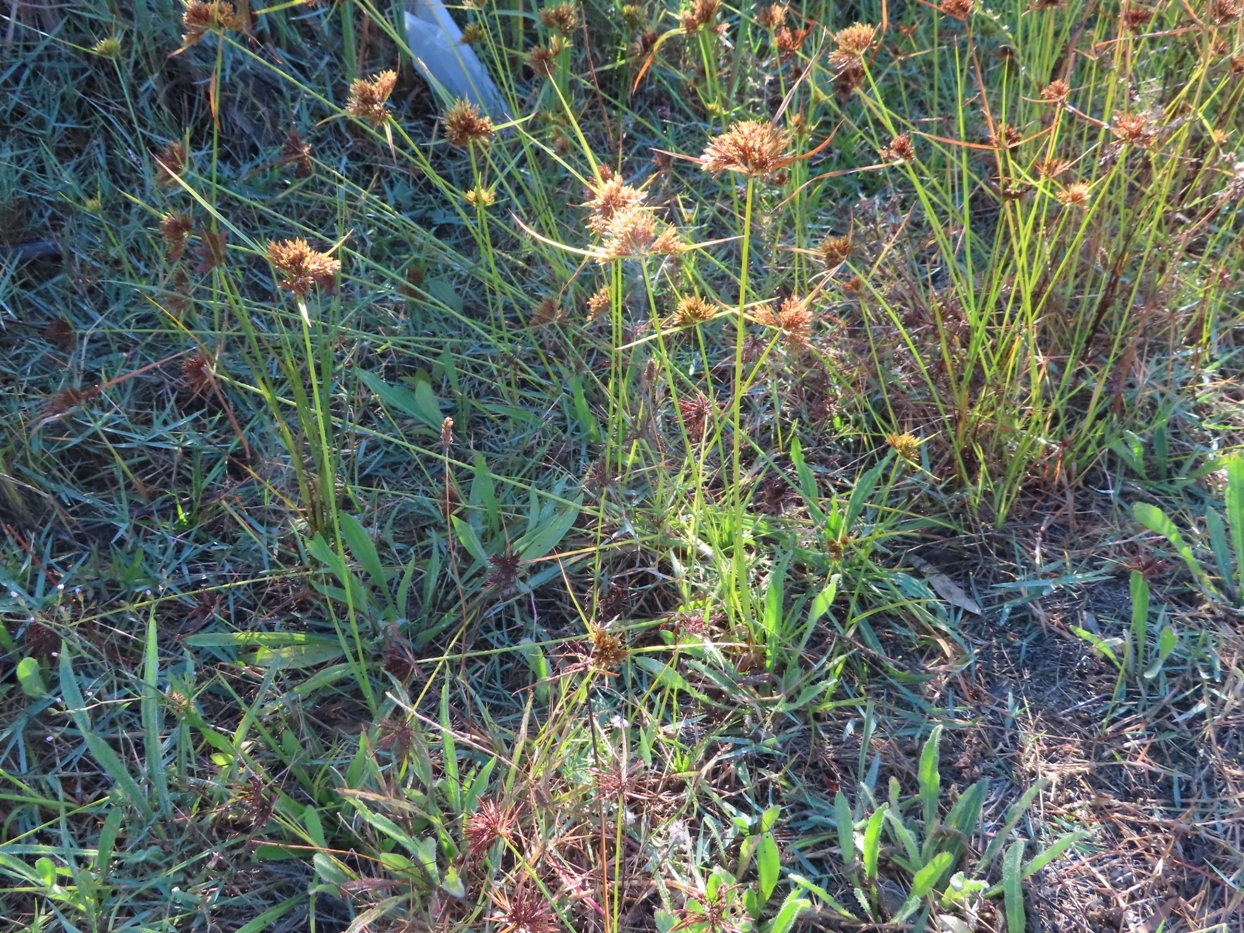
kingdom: Plantae
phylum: Tracheophyta
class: Liliopsida
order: Poales
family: Cyperaceae
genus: Cyperus
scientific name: Cyperus polystachyos
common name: Bunchy flat sedge
